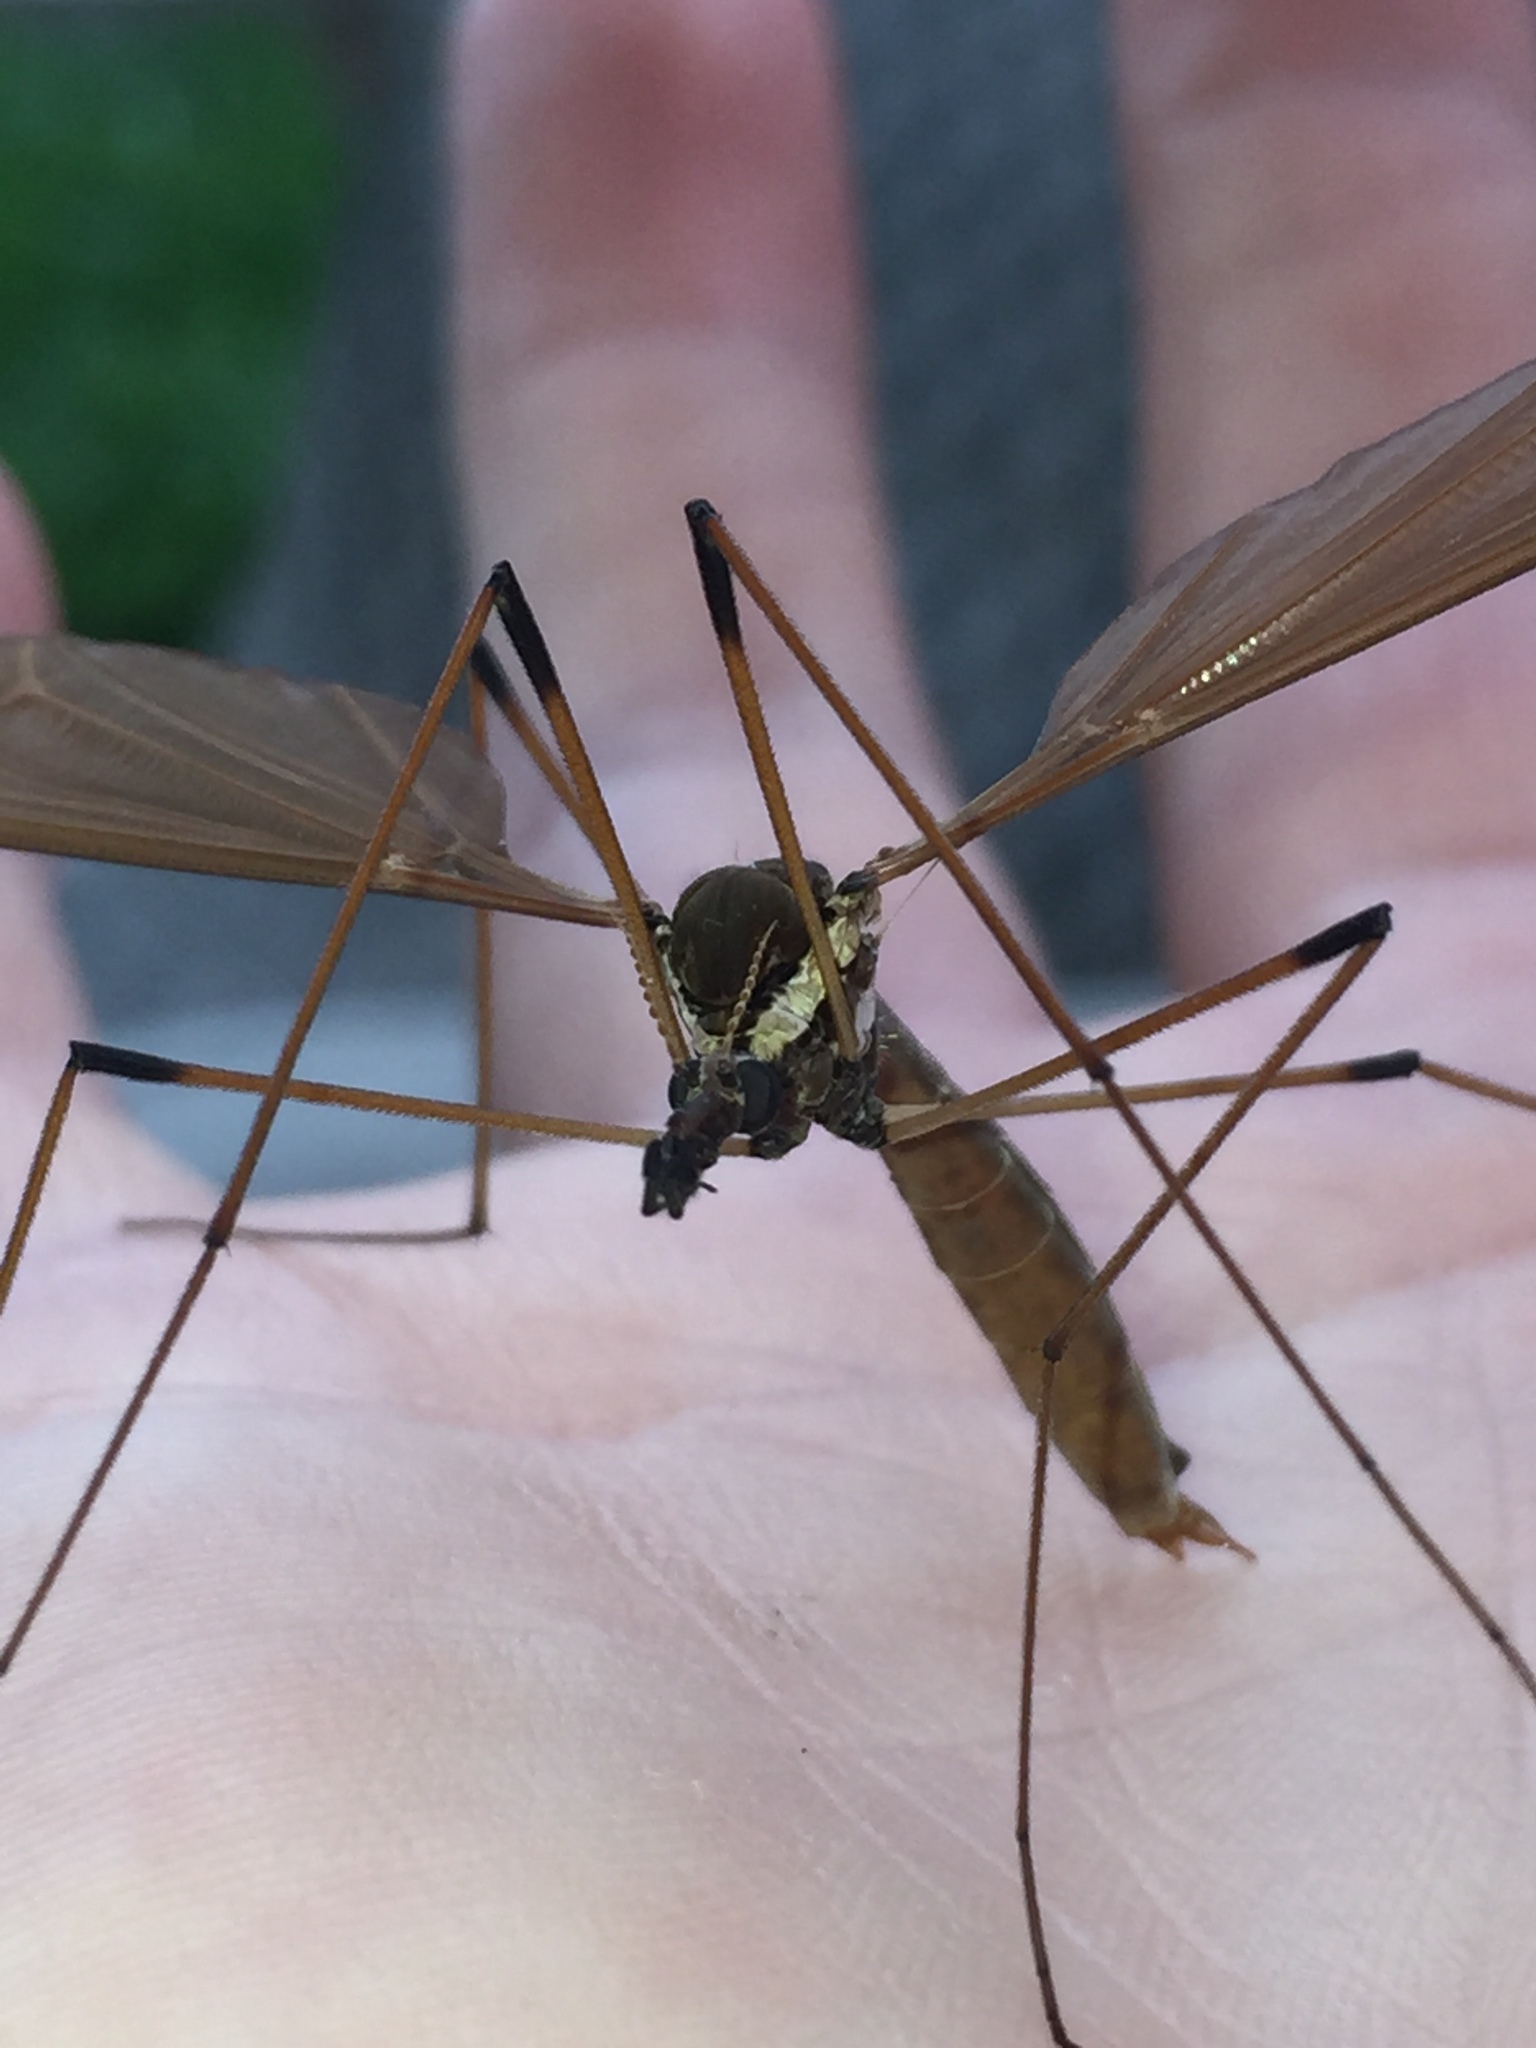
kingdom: Animalia
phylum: Arthropoda
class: Insecta
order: Diptera
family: Tipulidae
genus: Holorusia
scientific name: Holorusia hespera
